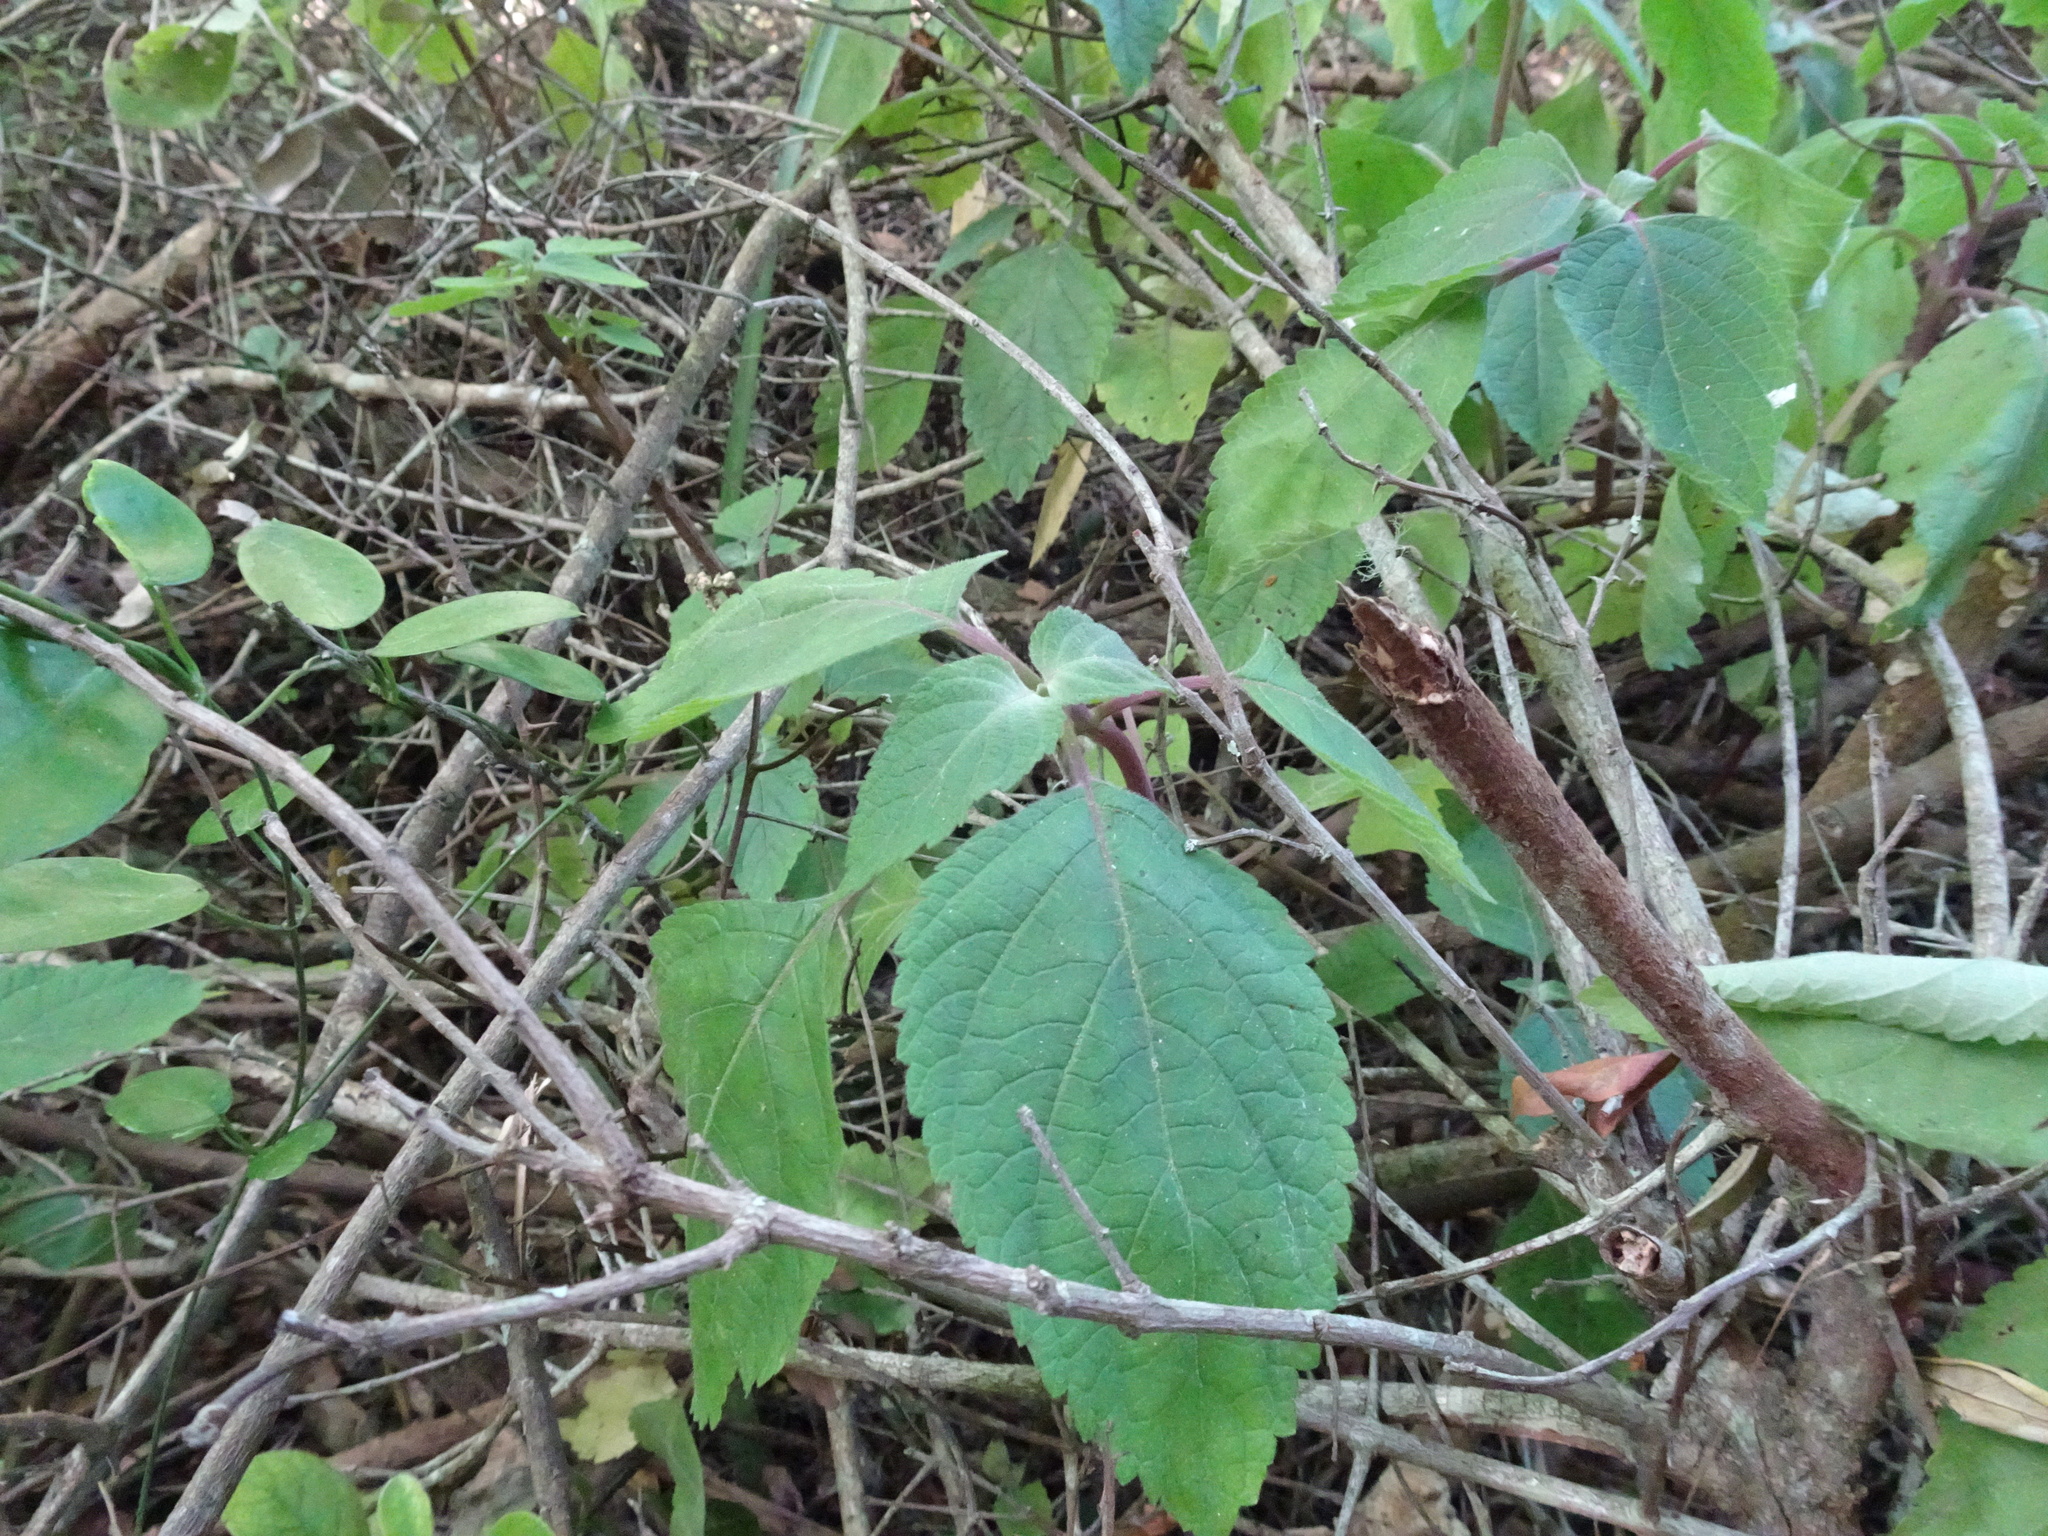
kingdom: Plantae
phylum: Tracheophyta
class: Magnoliopsida
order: Lamiales
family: Lamiaceae
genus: Plectranthus
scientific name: Plectranthus fruticosus
